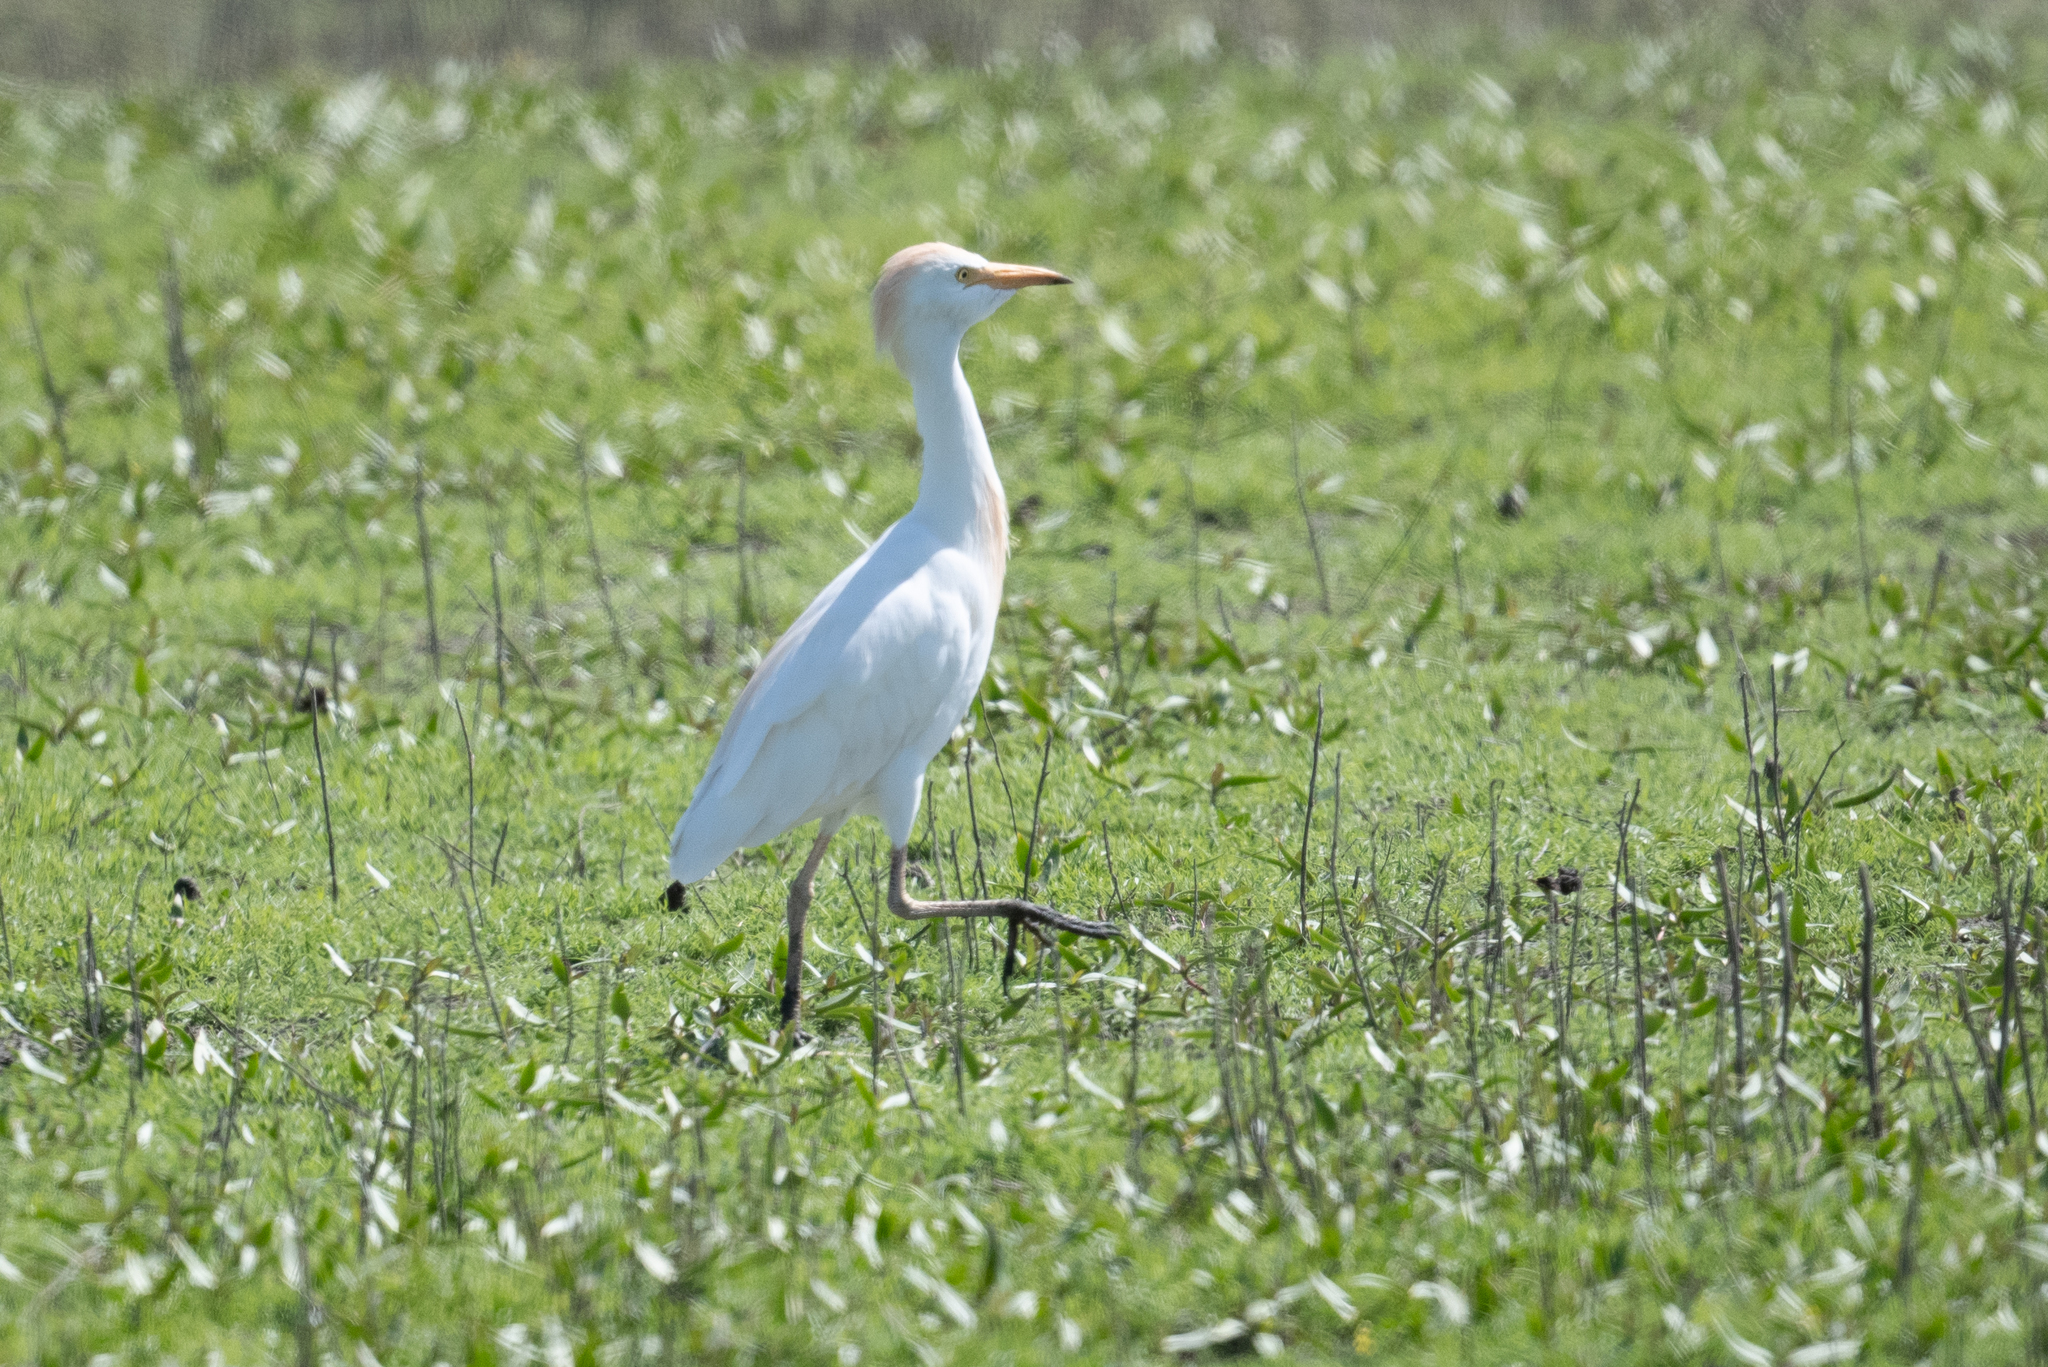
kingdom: Animalia
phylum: Chordata
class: Aves
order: Pelecaniformes
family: Ardeidae
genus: Bubulcus
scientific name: Bubulcus ibis
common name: Cattle egret
